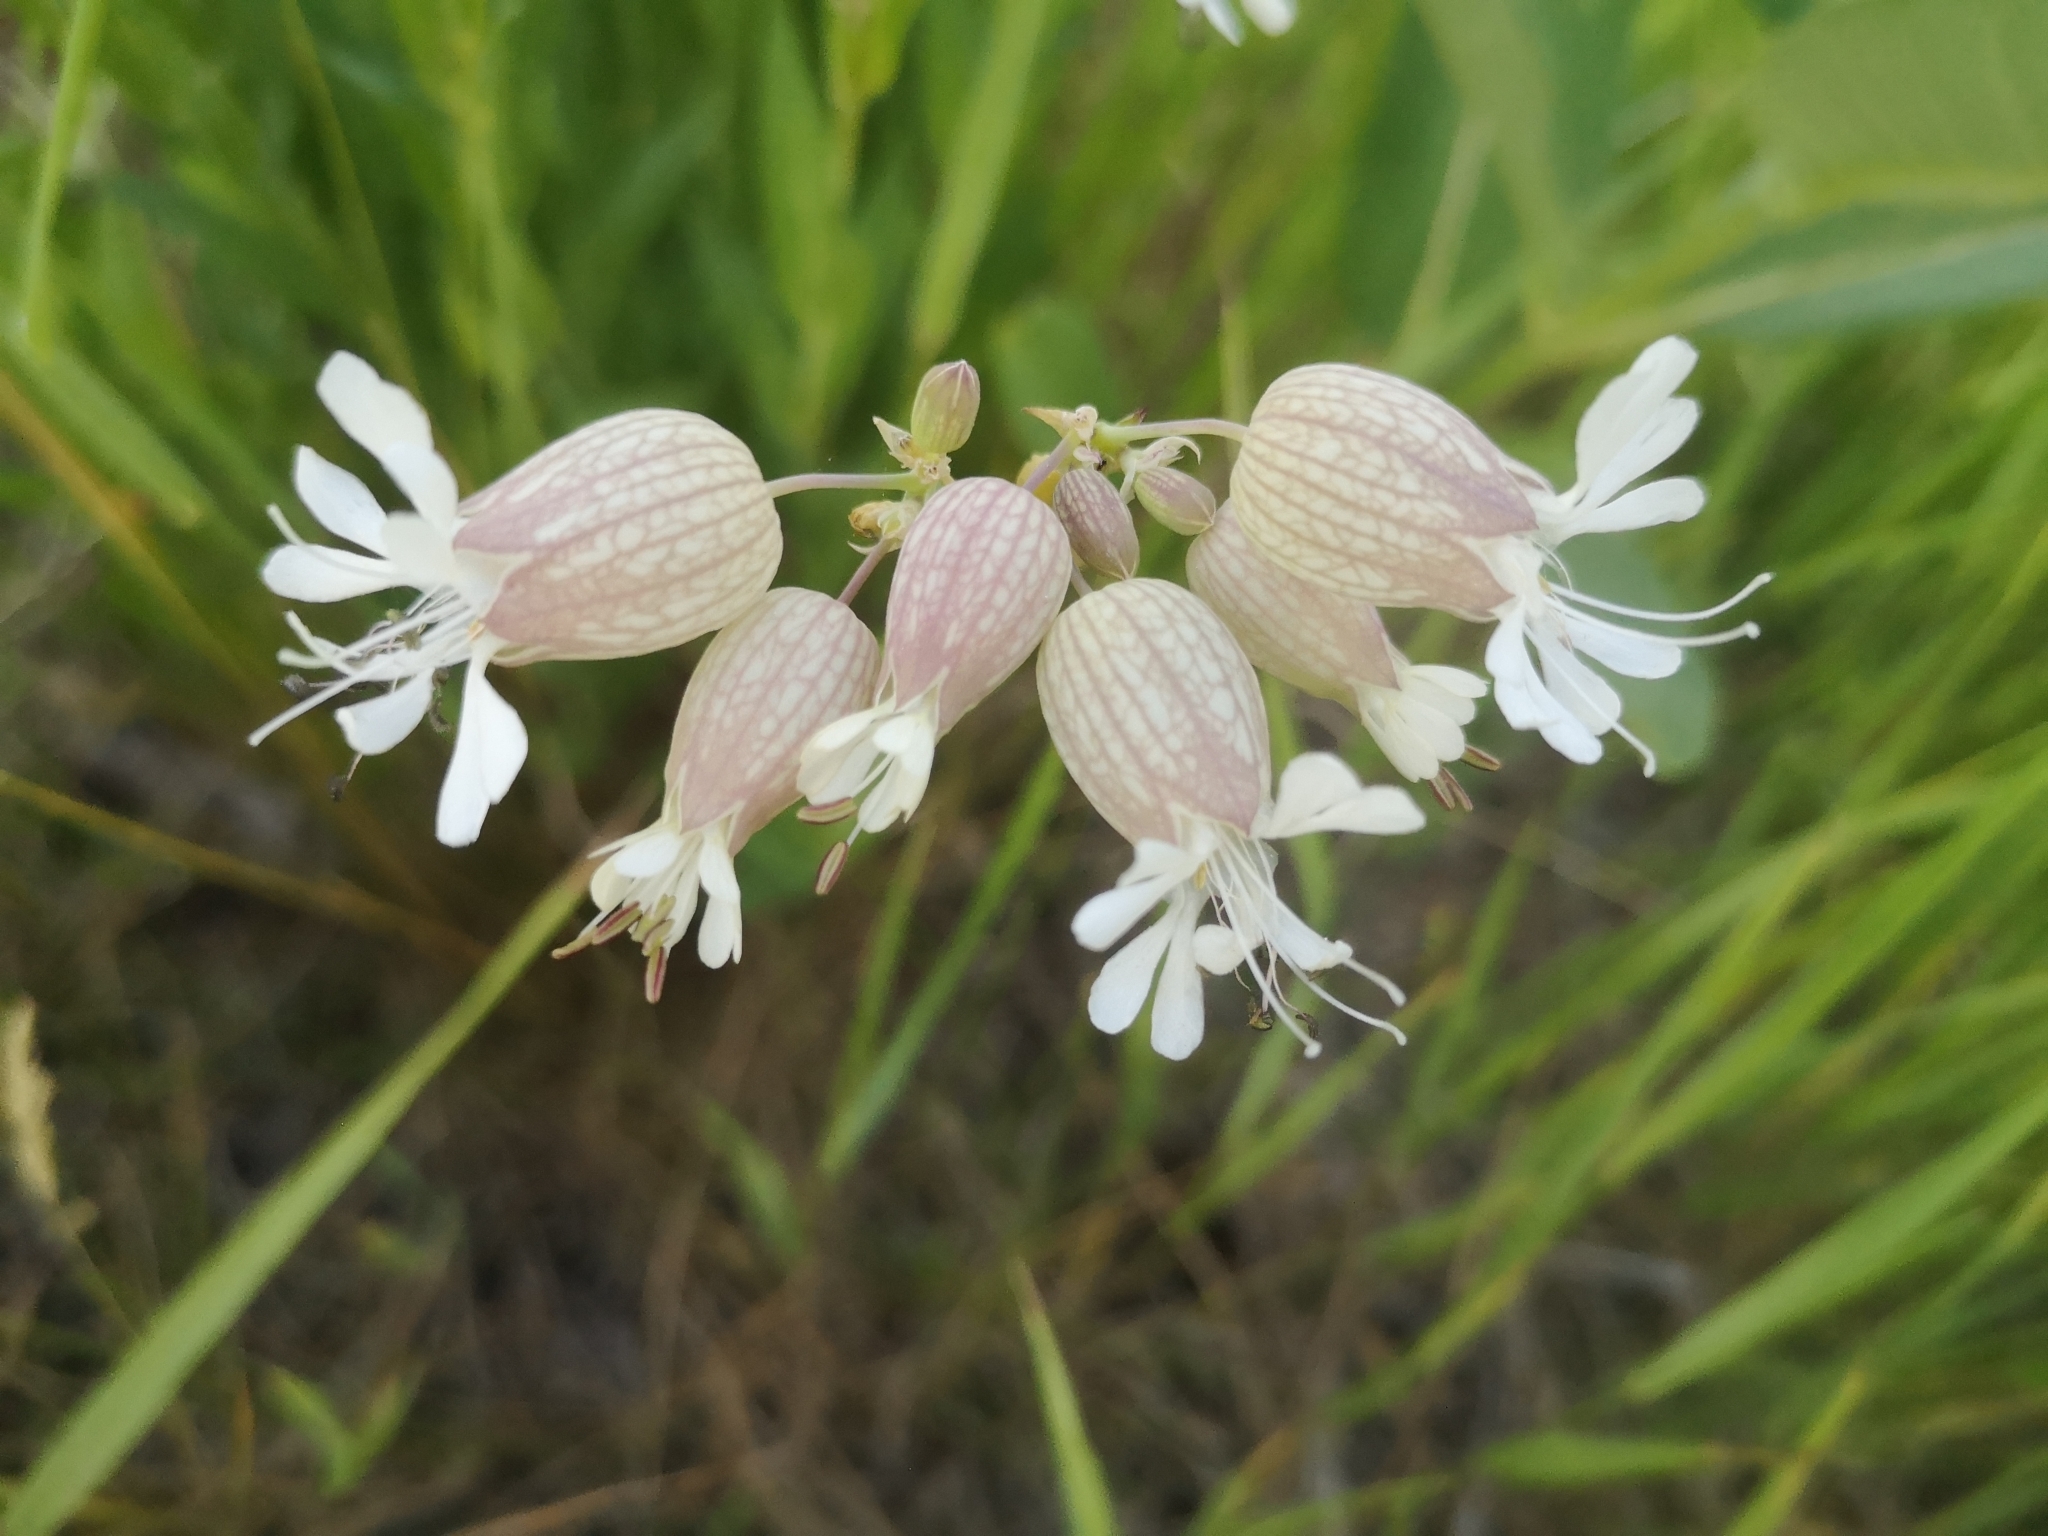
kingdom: Plantae
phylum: Tracheophyta
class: Magnoliopsida
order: Caryophyllales
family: Caryophyllaceae
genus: Silene
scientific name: Silene vulgaris
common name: Bladder campion
